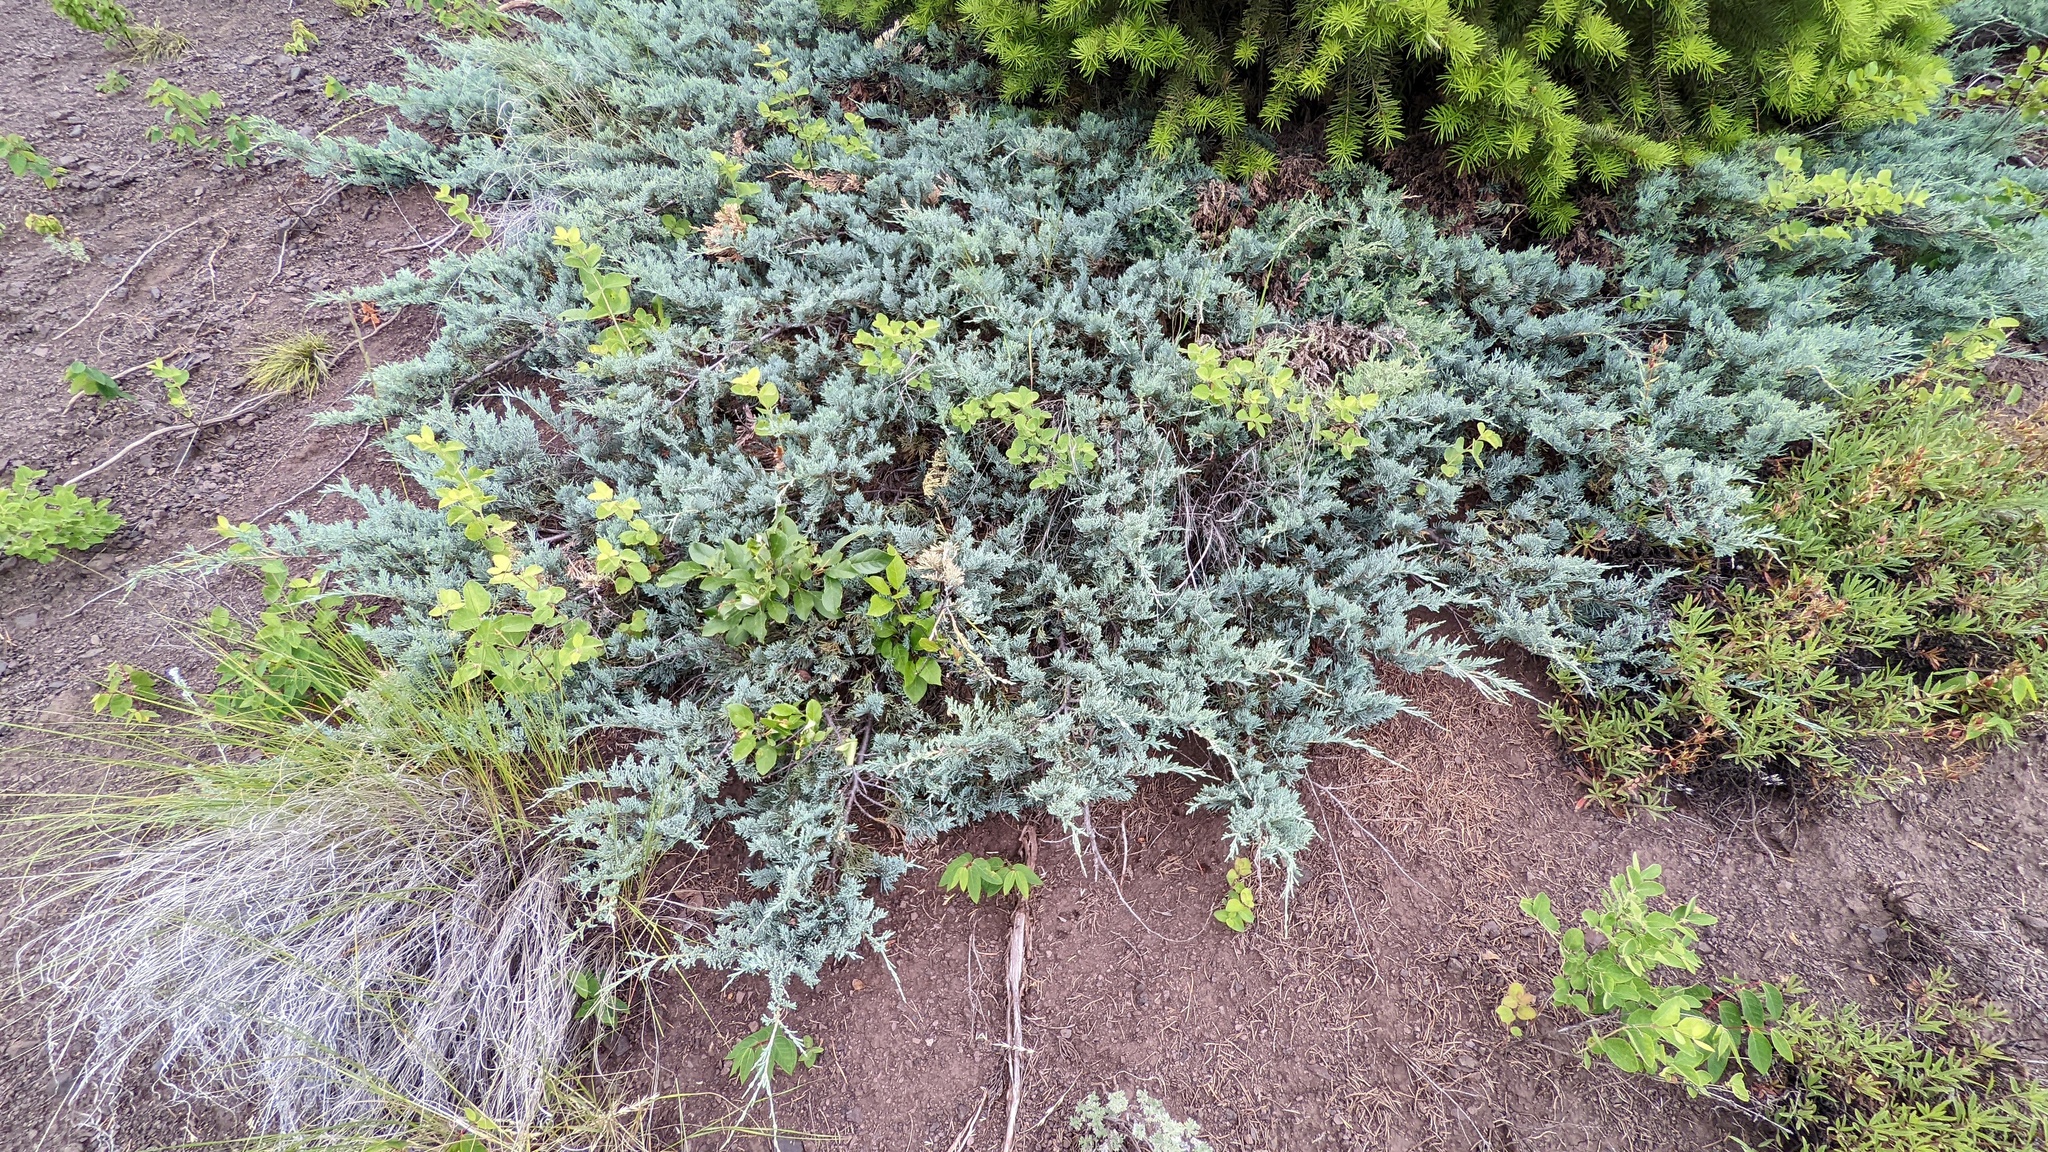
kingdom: Plantae
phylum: Tracheophyta
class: Pinopsida
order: Pinales
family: Cupressaceae
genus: Juniperus
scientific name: Juniperus horizontalis
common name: Creeping juniper
